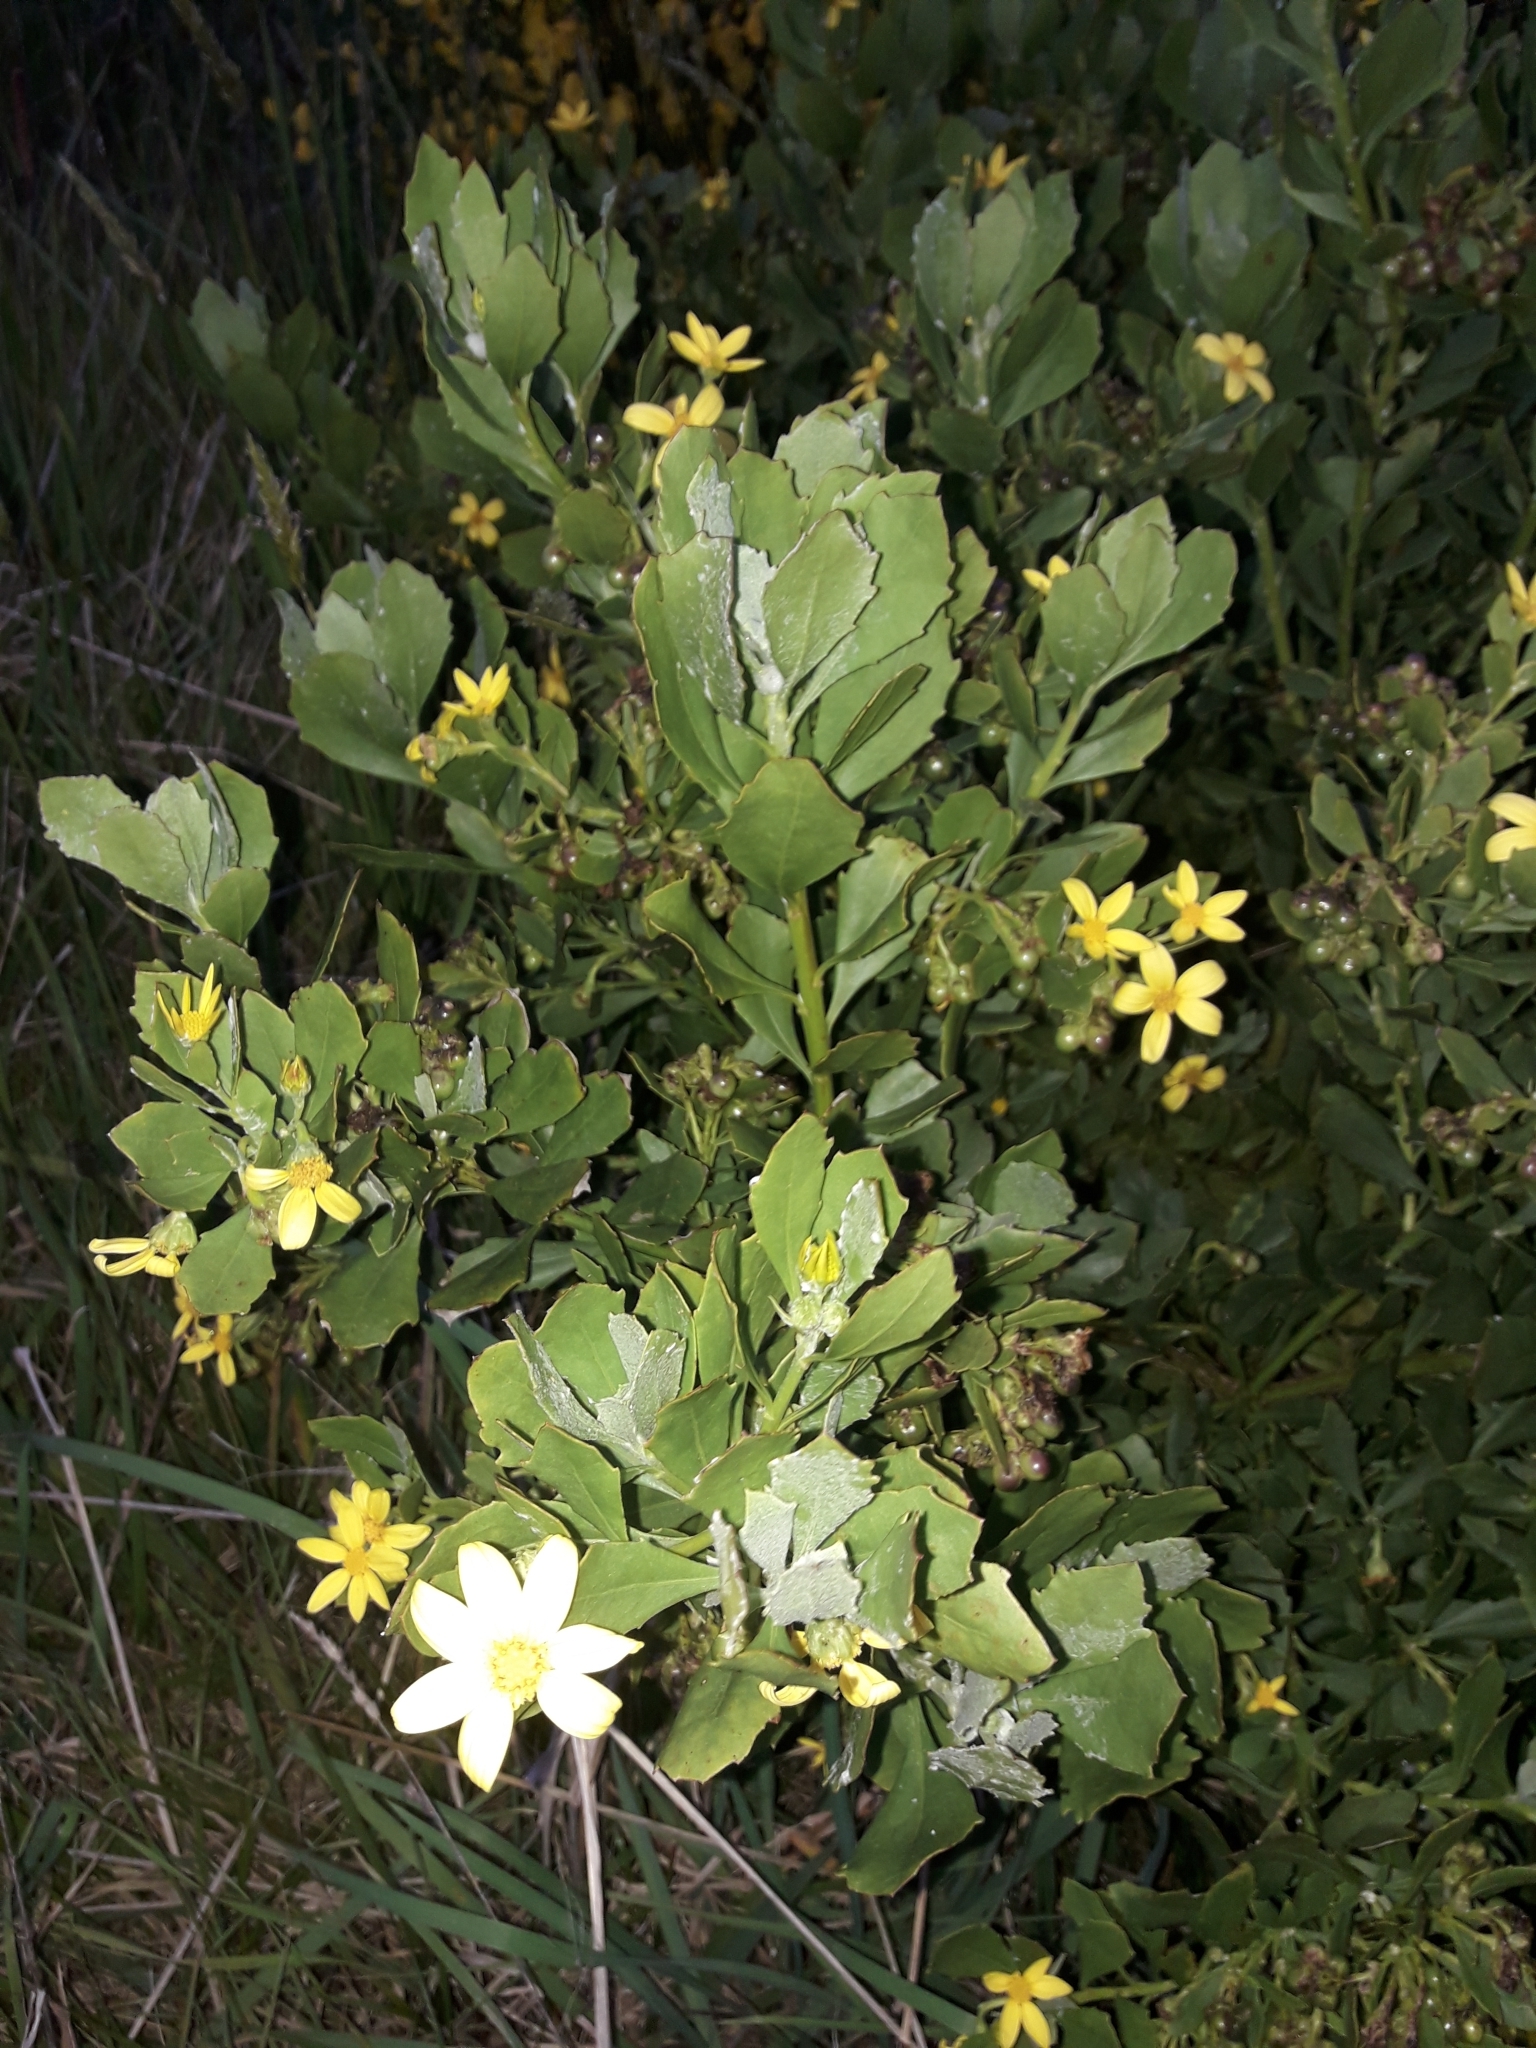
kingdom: Plantae
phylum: Tracheophyta
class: Magnoliopsida
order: Asterales
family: Asteraceae
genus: Osteospermum
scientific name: Osteospermum moniliferum
